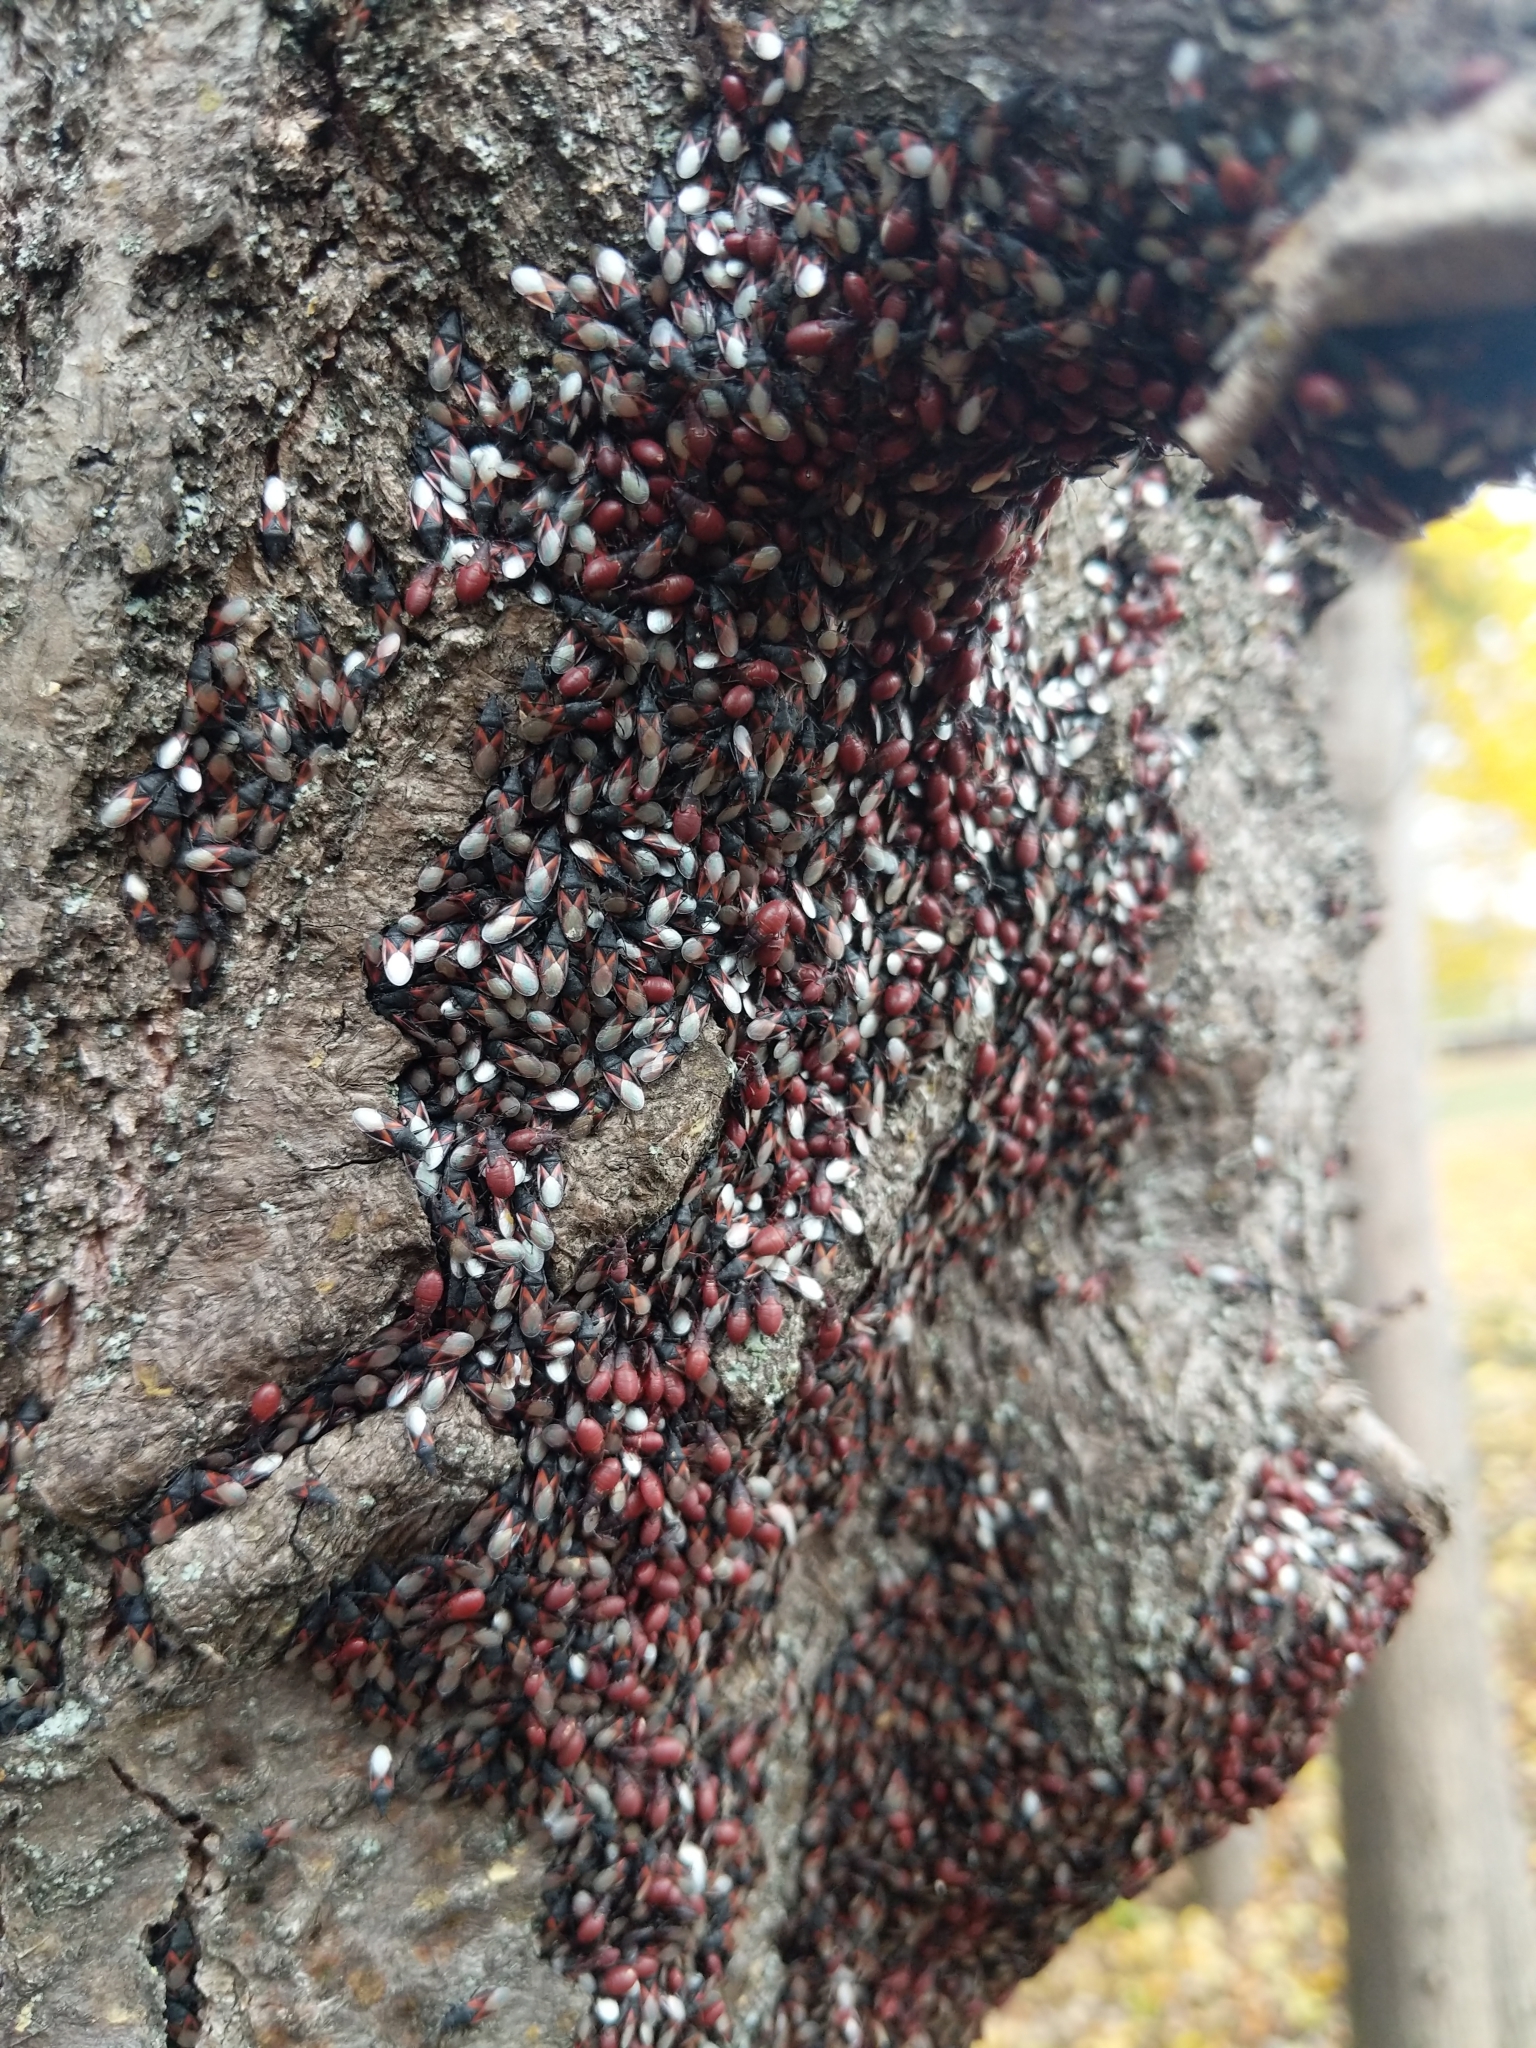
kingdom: Animalia
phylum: Arthropoda
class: Insecta
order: Hemiptera
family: Oxycarenidae
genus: Oxycarenus
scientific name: Oxycarenus lavaterae
